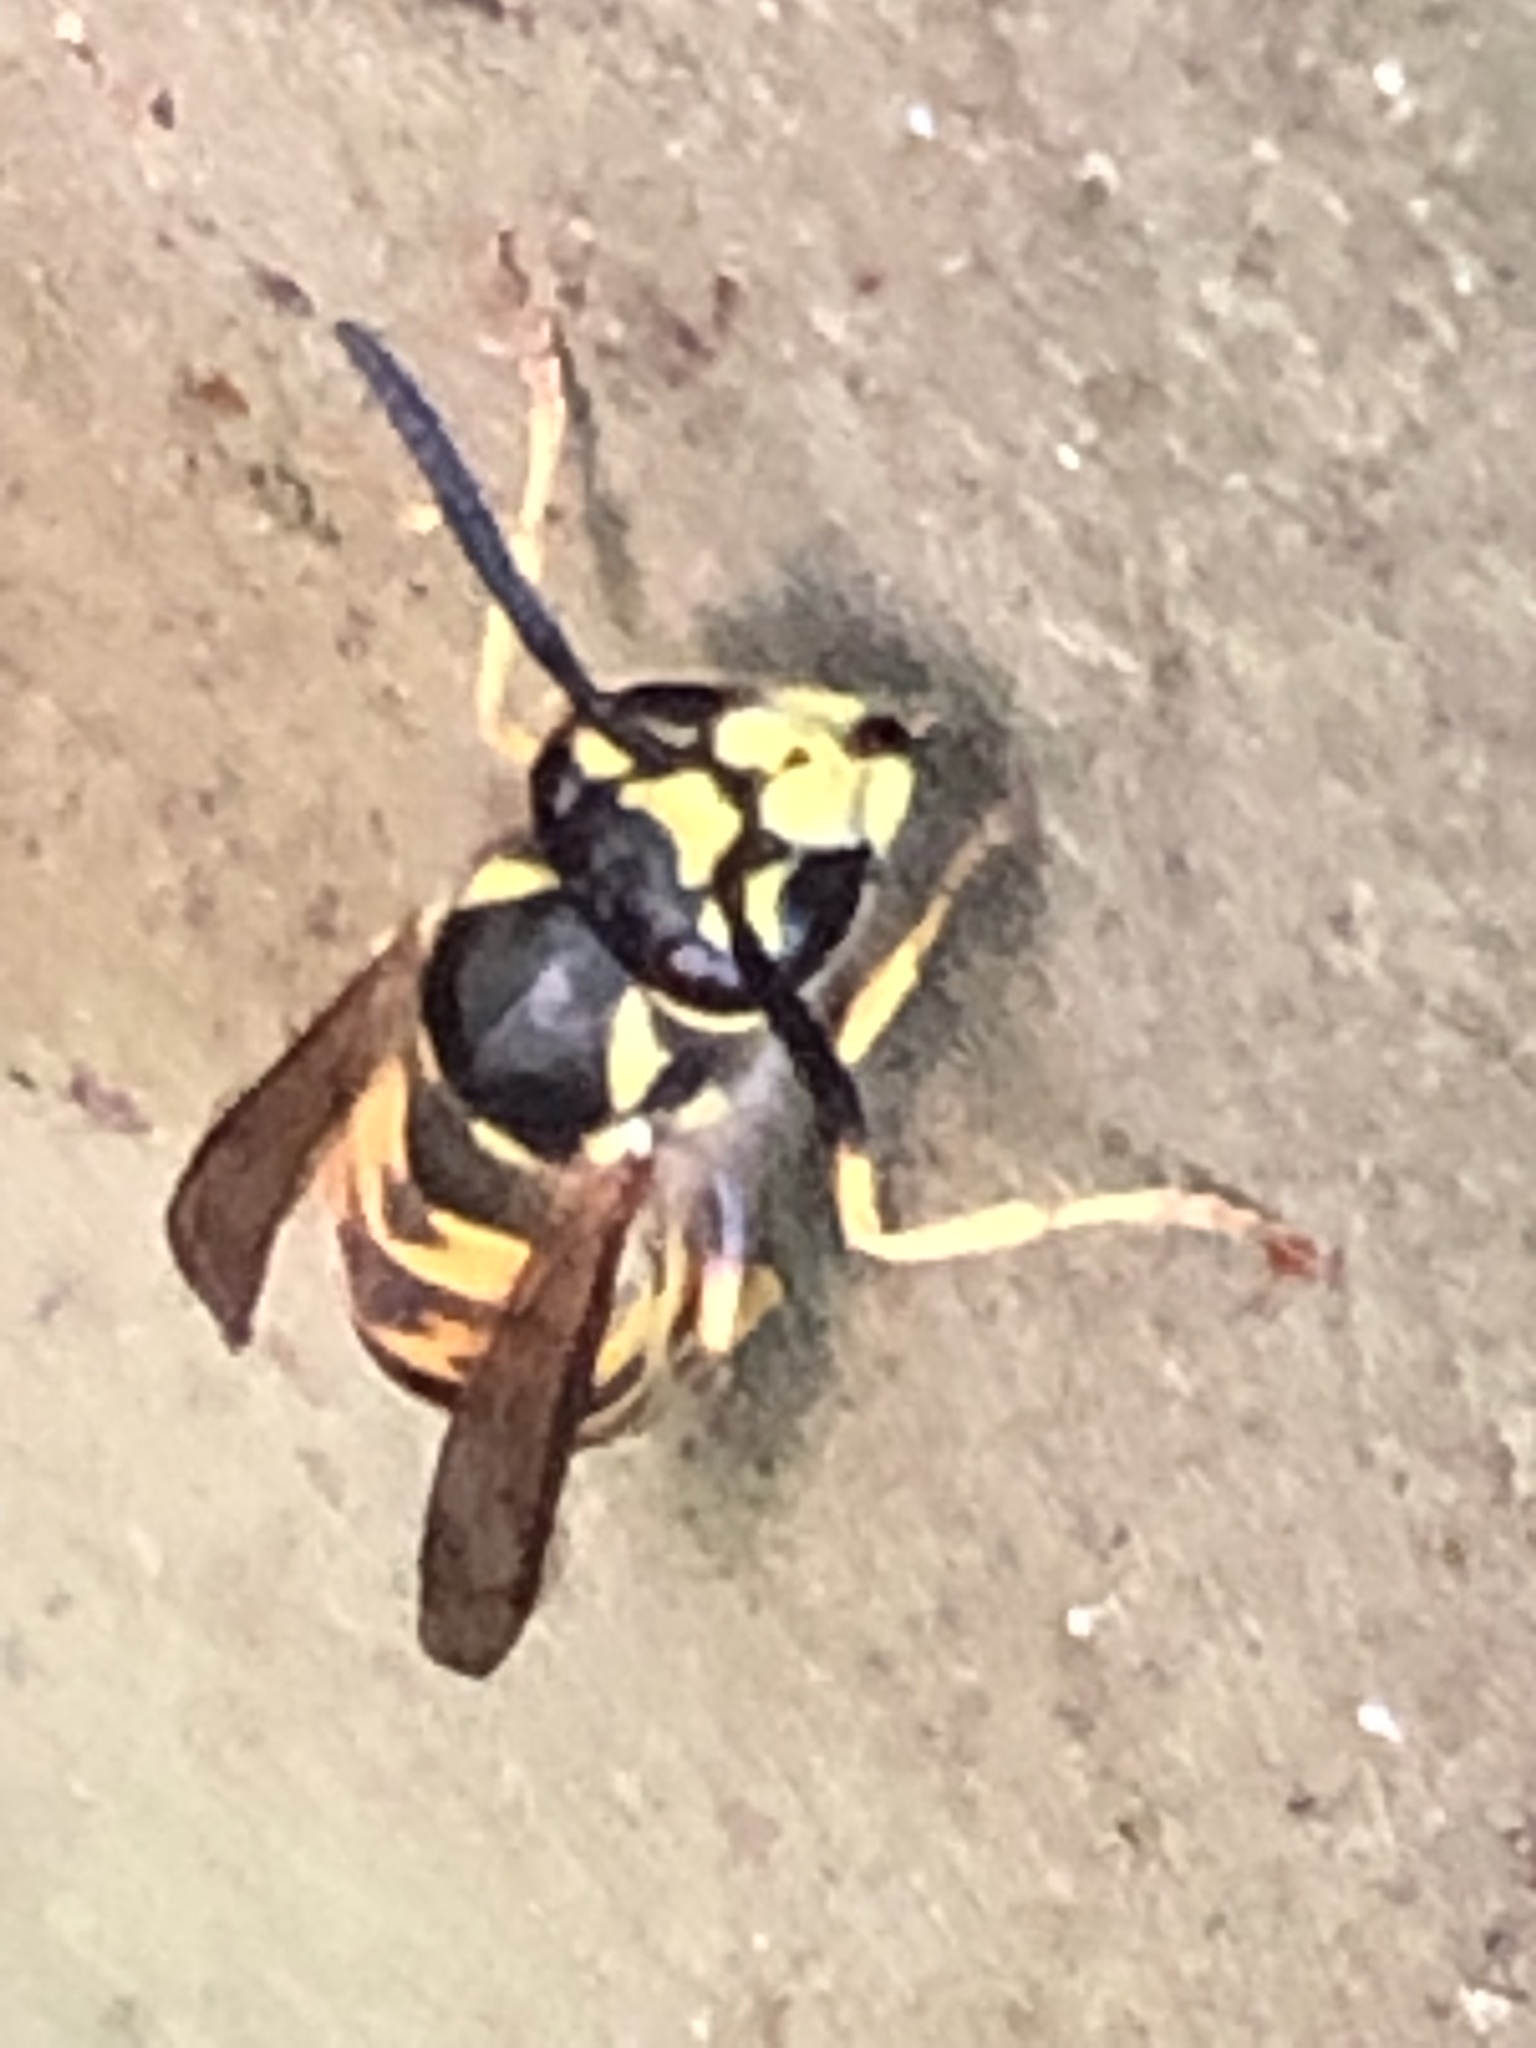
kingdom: Animalia
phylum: Arthropoda
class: Insecta
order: Hymenoptera
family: Vespidae
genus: Vespula
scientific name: Vespula germanica
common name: German wasp
